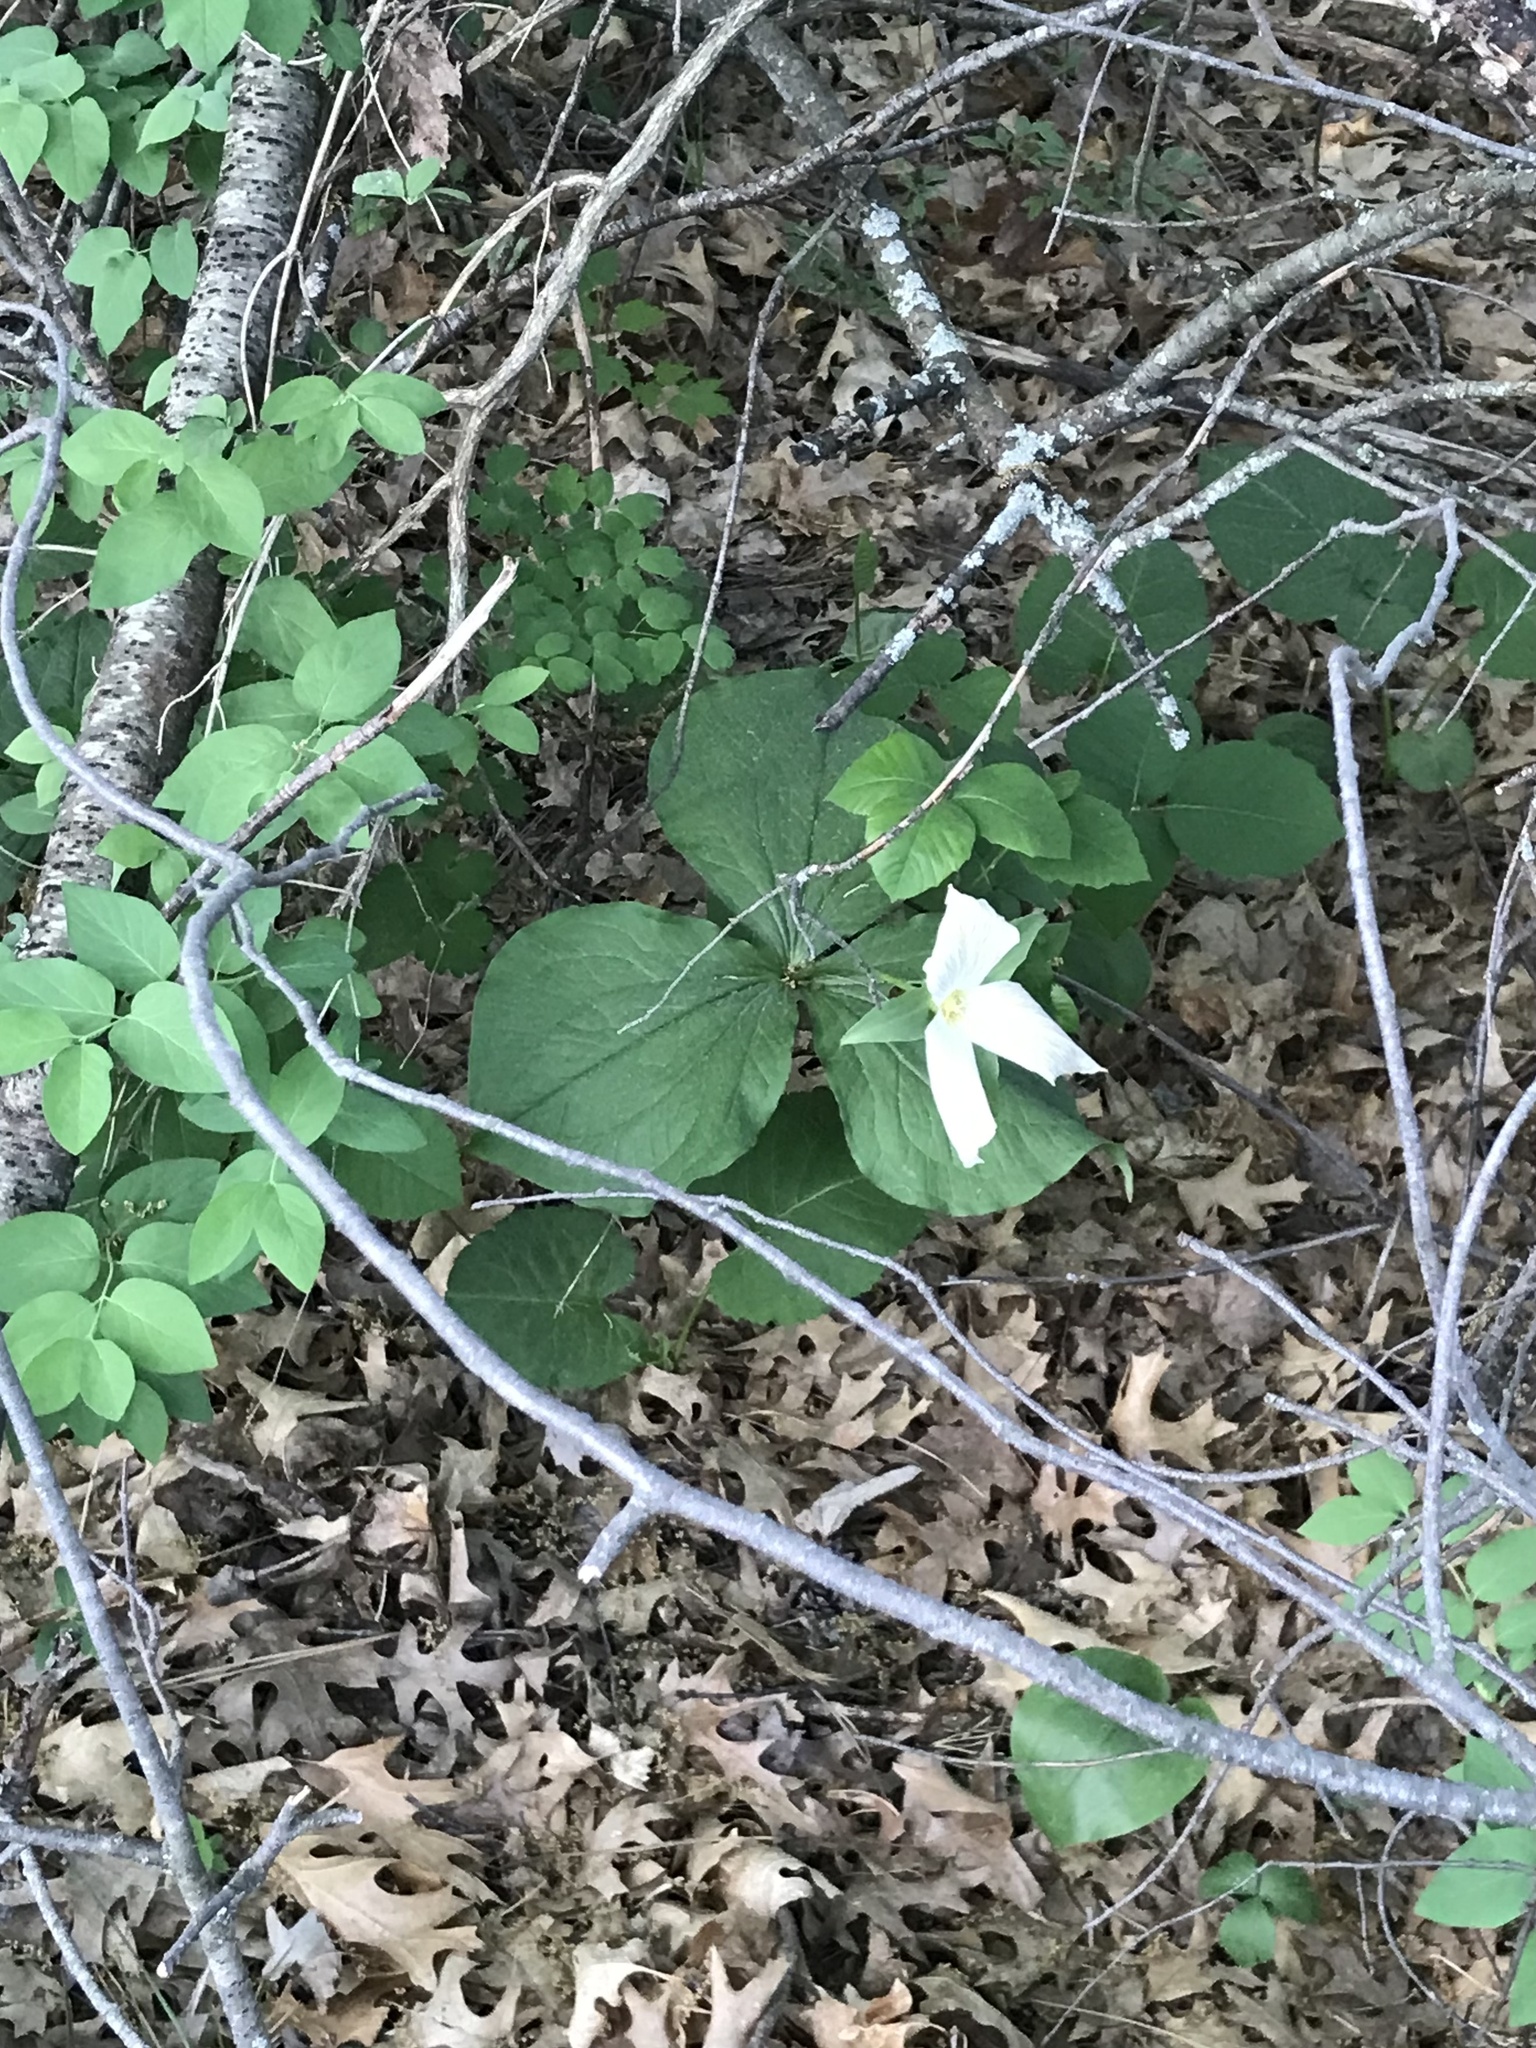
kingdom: Plantae
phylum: Tracheophyta
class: Liliopsida
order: Liliales
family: Melanthiaceae
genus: Trillium
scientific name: Trillium grandiflorum
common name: Great white trillium
